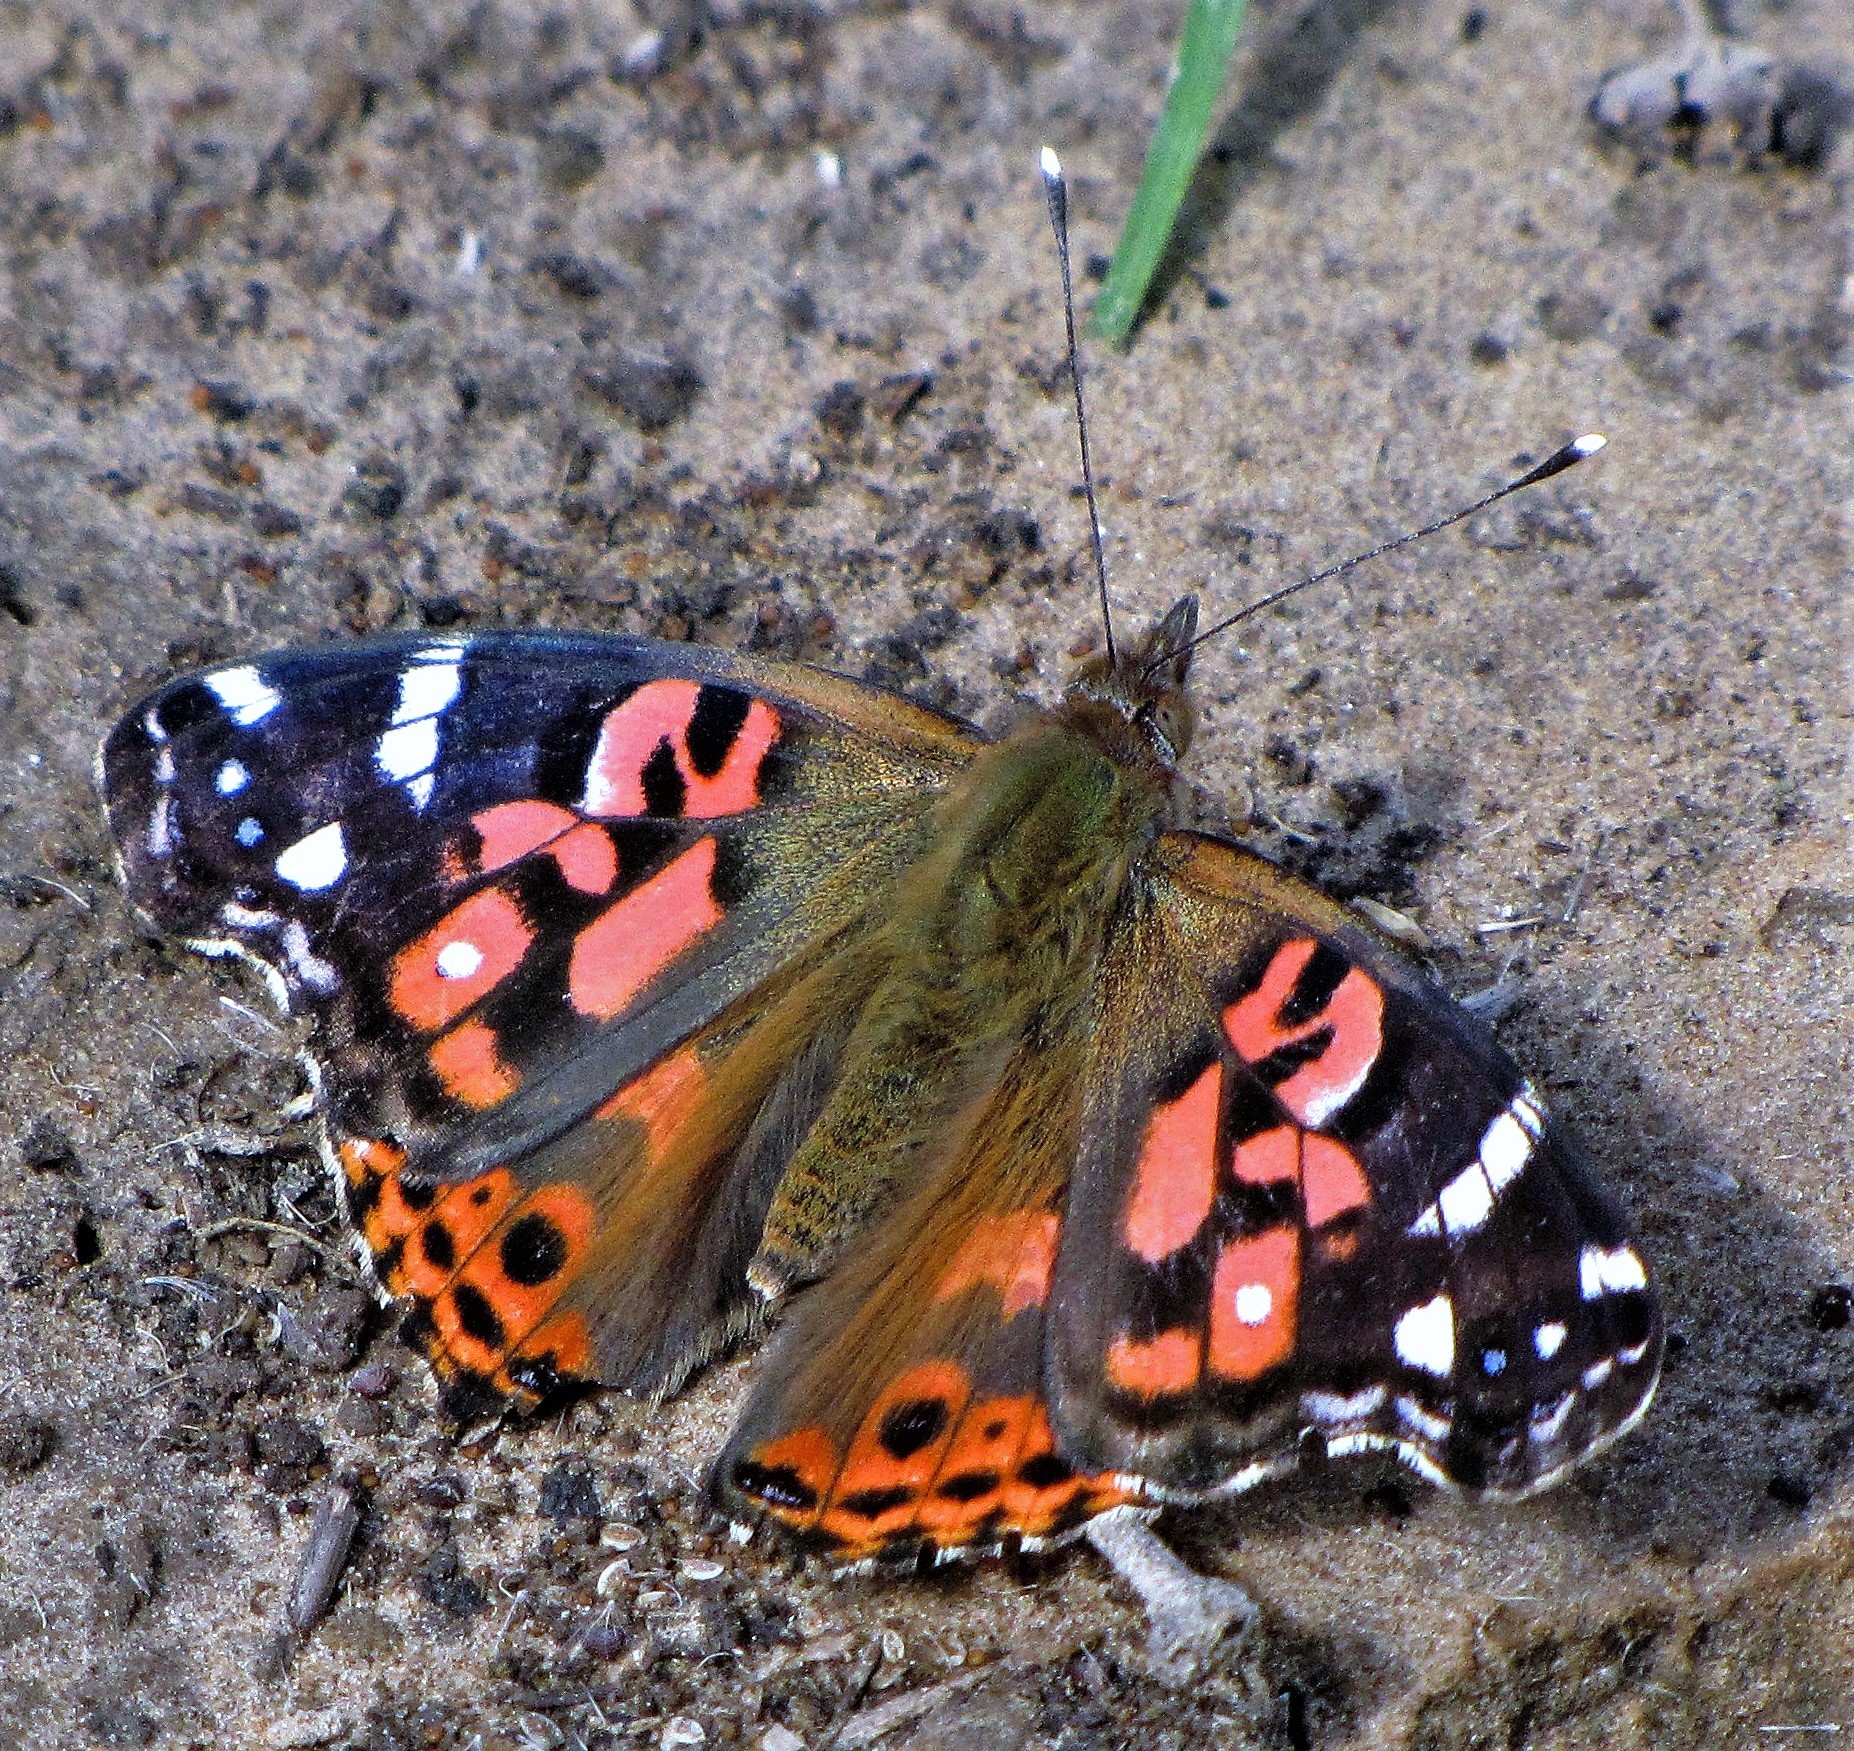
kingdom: Animalia
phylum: Arthropoda
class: Insecta
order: Lepidoptera
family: Nymphalidae
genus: Vanessa
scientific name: Vanessa braziliensis
